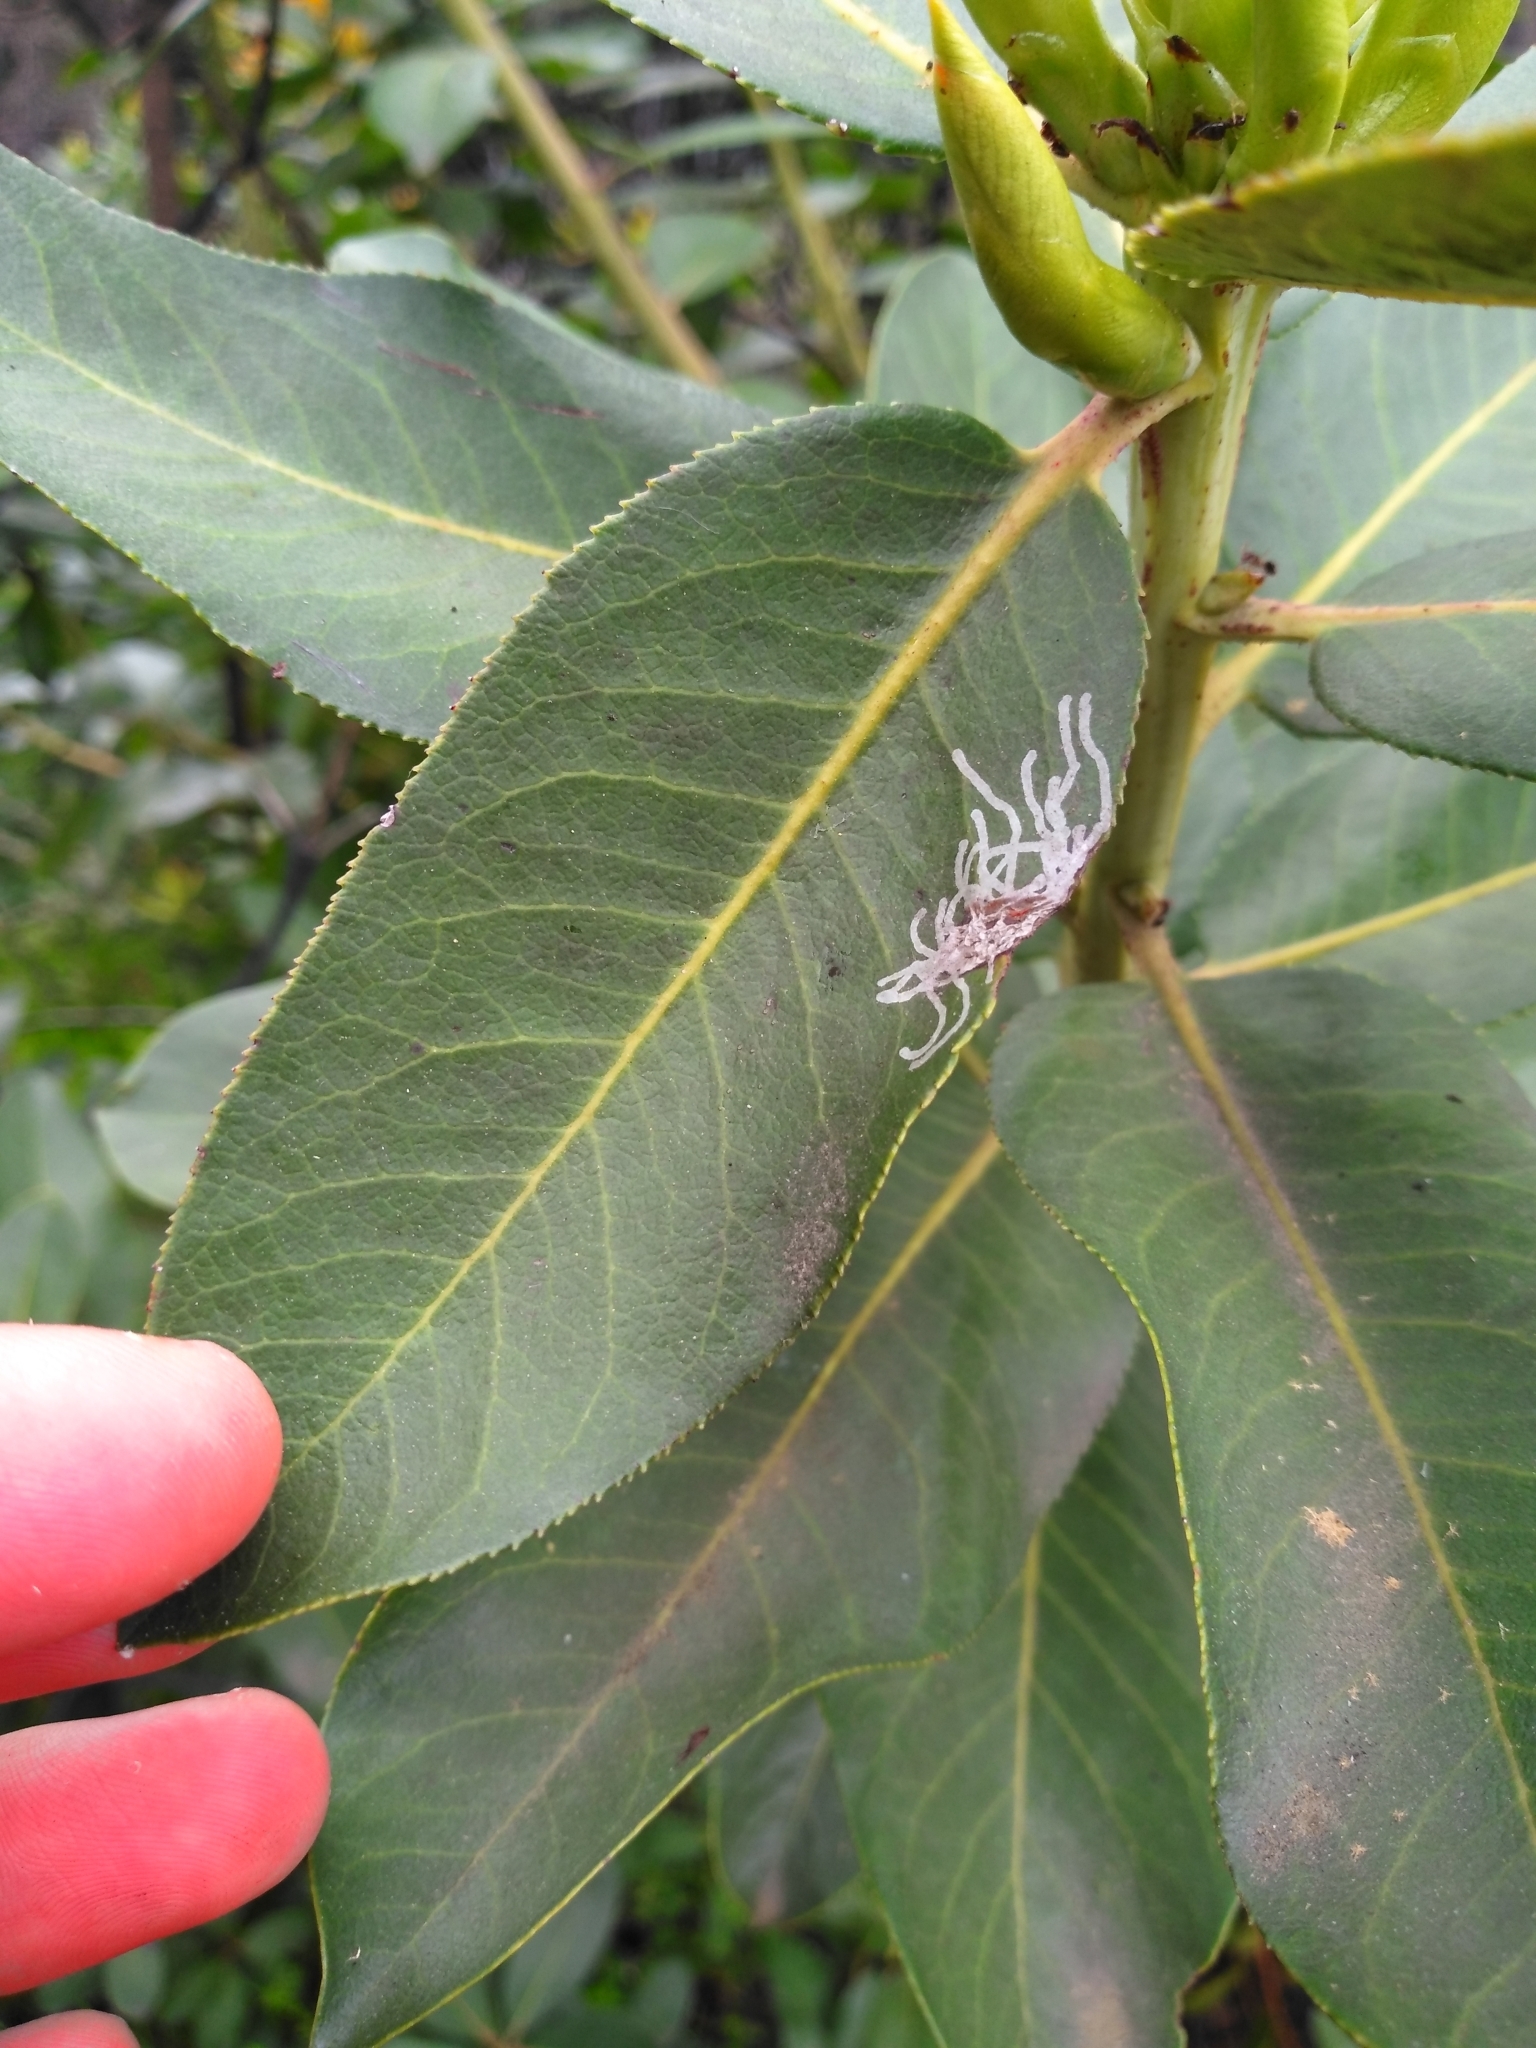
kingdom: Animalia
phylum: Arthropoda
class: Insecta
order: Lepidoptera
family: Gracillariidae
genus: Marmara
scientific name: Marmara arbutiella
